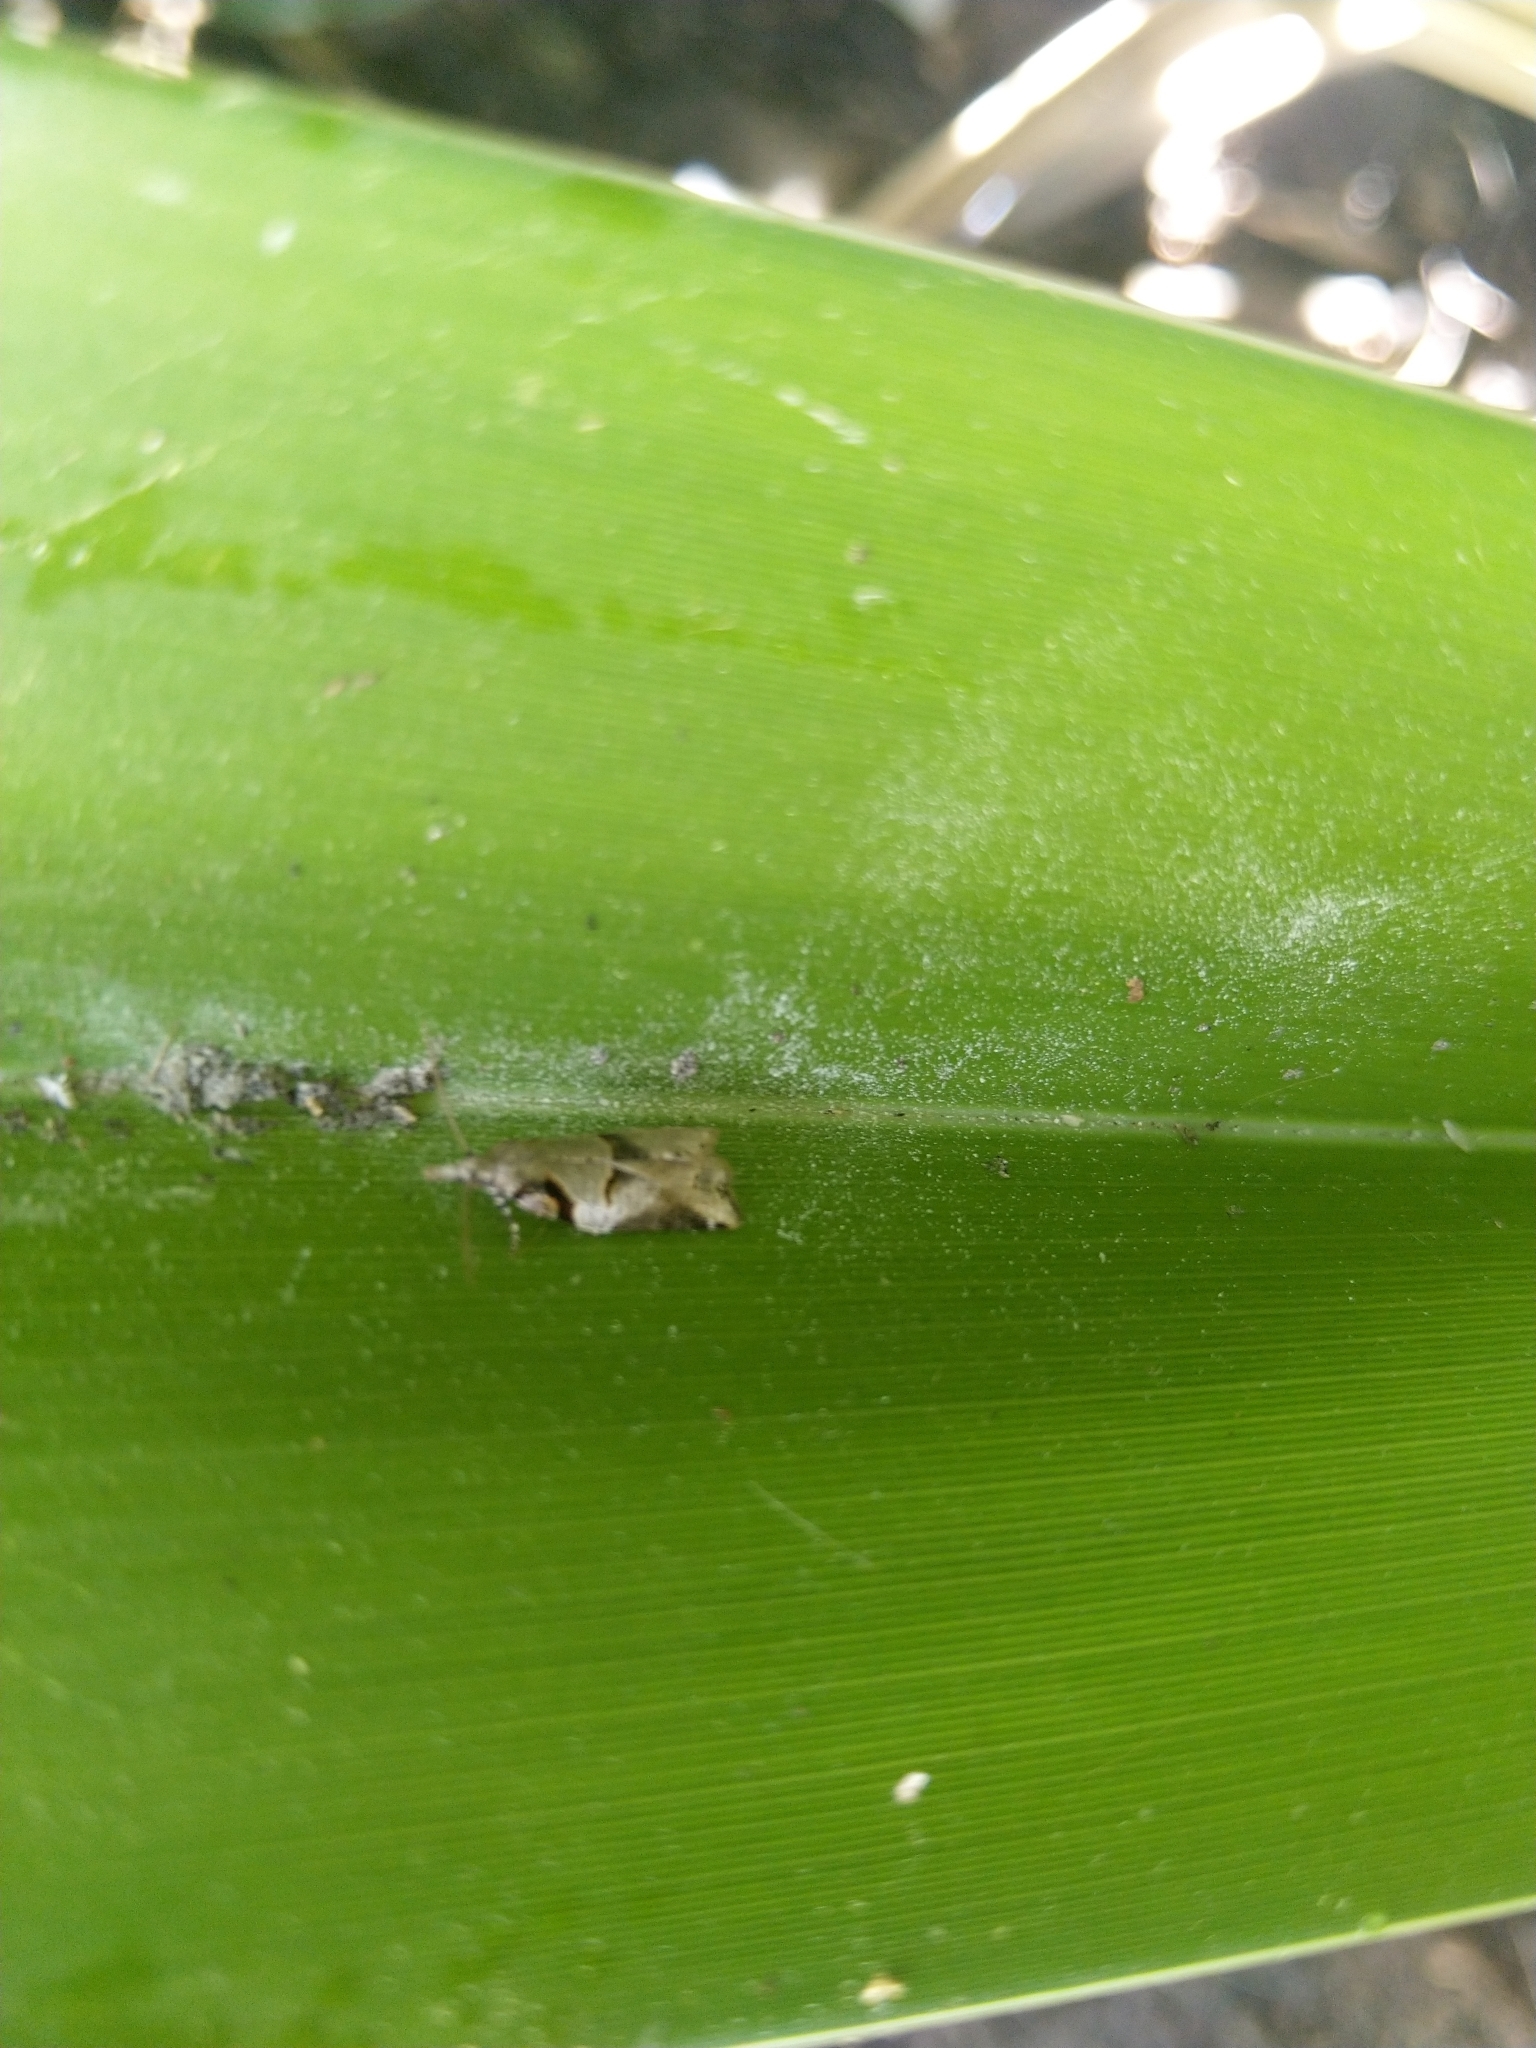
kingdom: Animalia
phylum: Arthropoda
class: Insecta
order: Lepidoptera
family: Tortricidae
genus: Harmologa
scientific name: Harmologa amplexana
